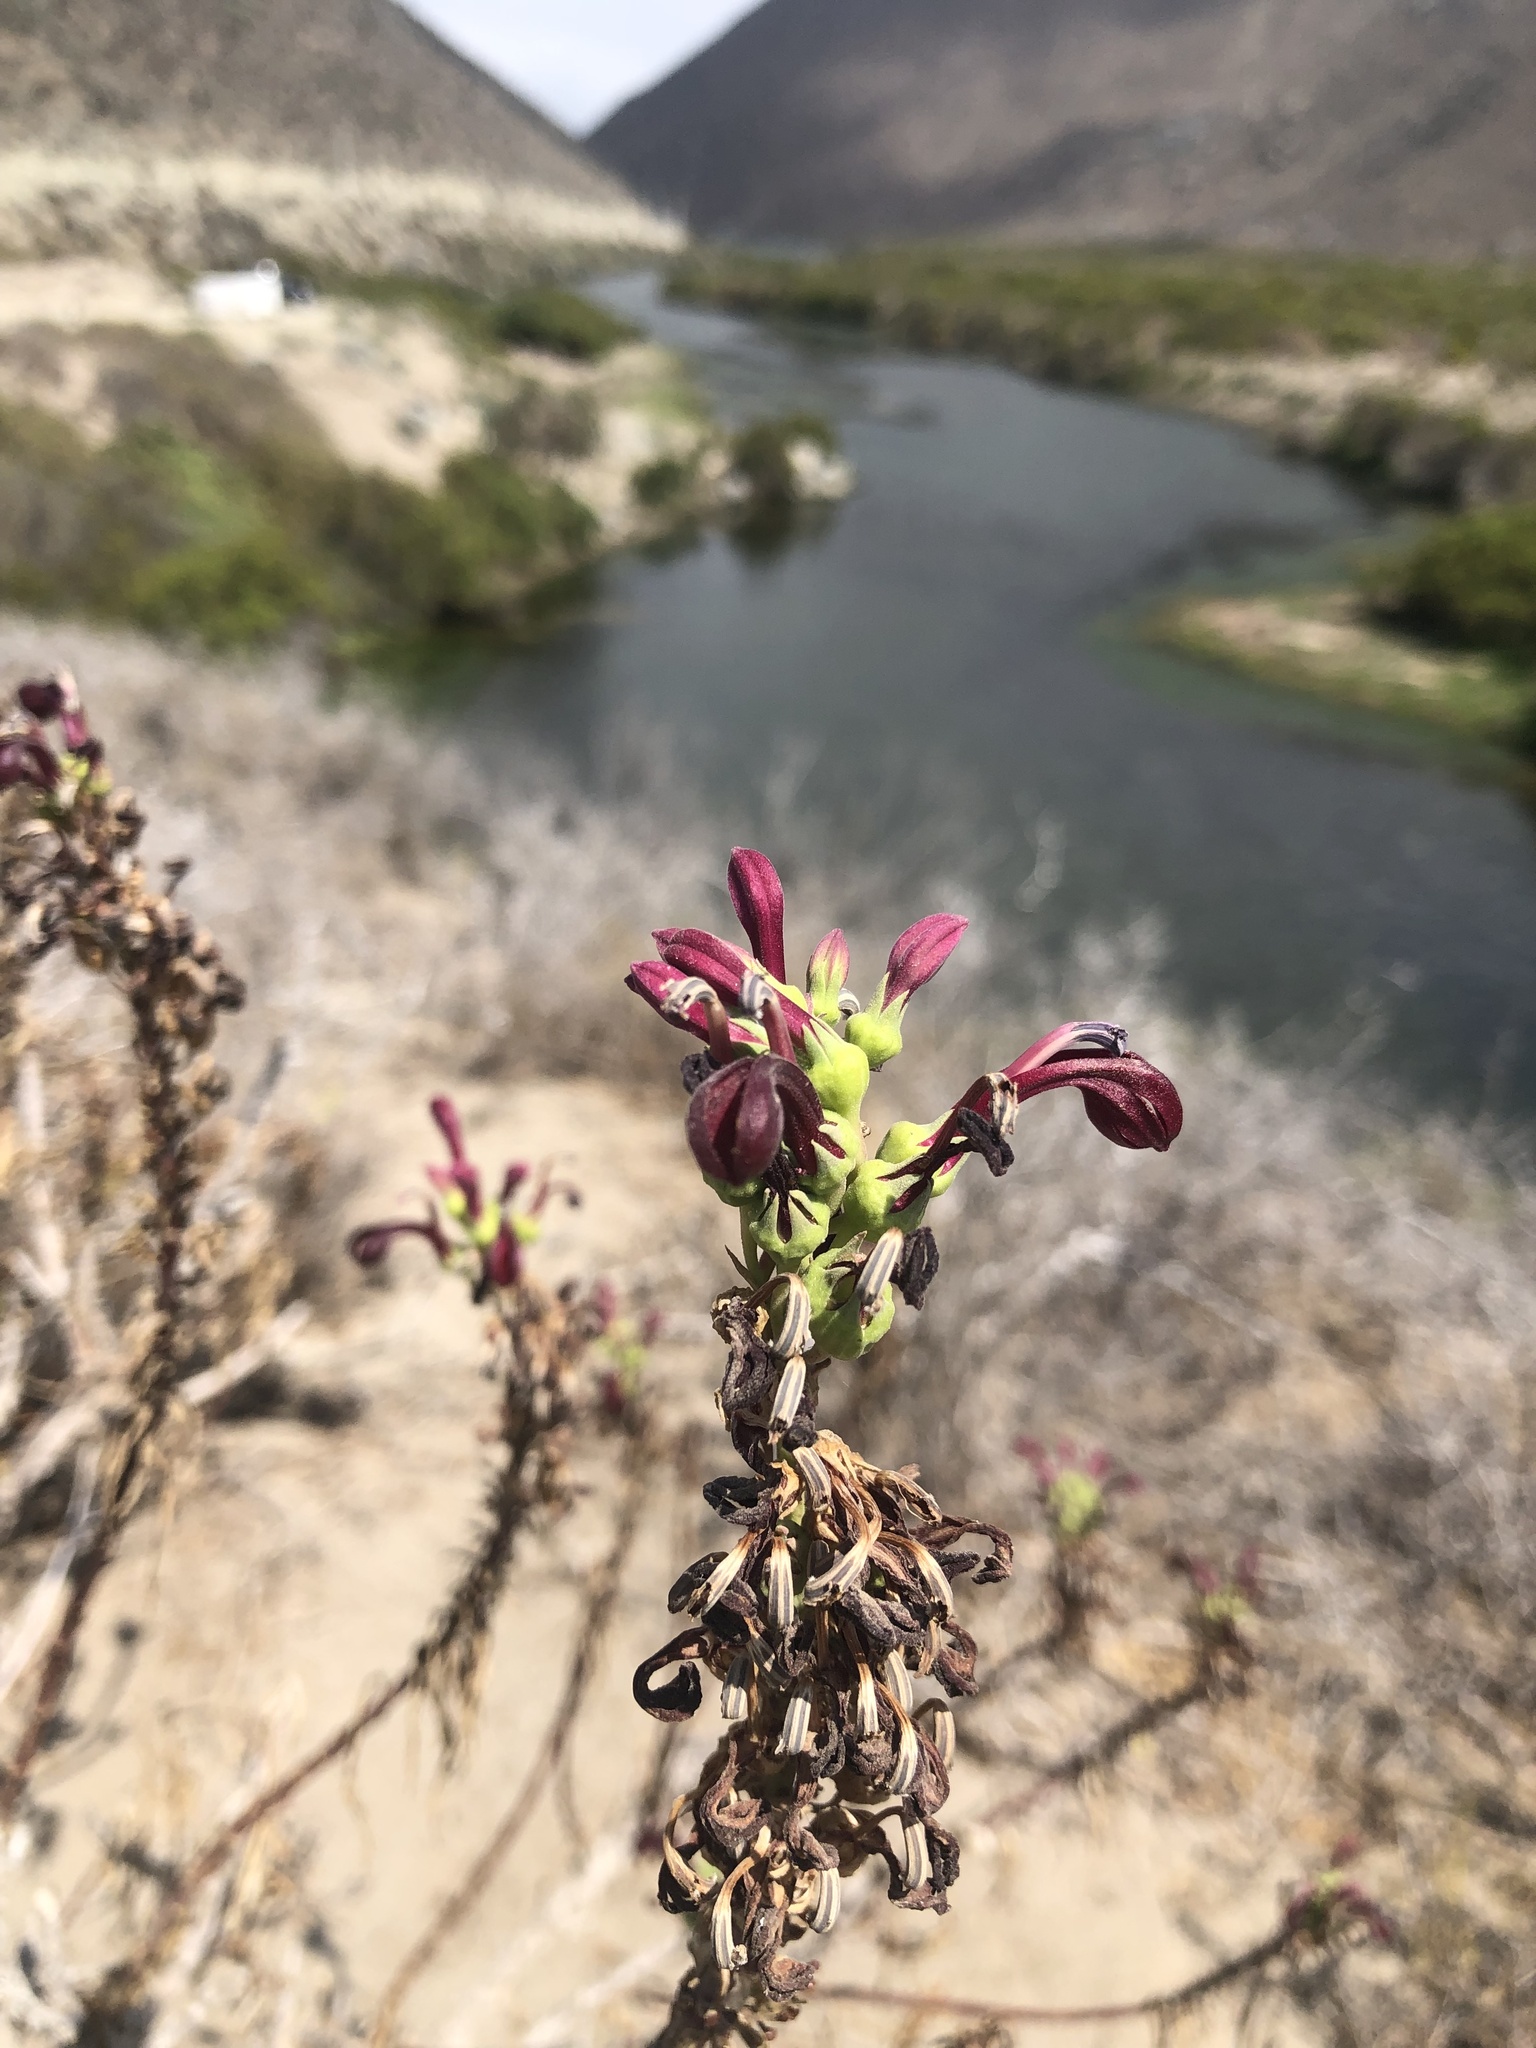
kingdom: Plantae
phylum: Tracheophyta
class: Magnoliopsida
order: Asterales
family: Campanulaceae
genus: Lobelia
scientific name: Lobelia polyphylla
